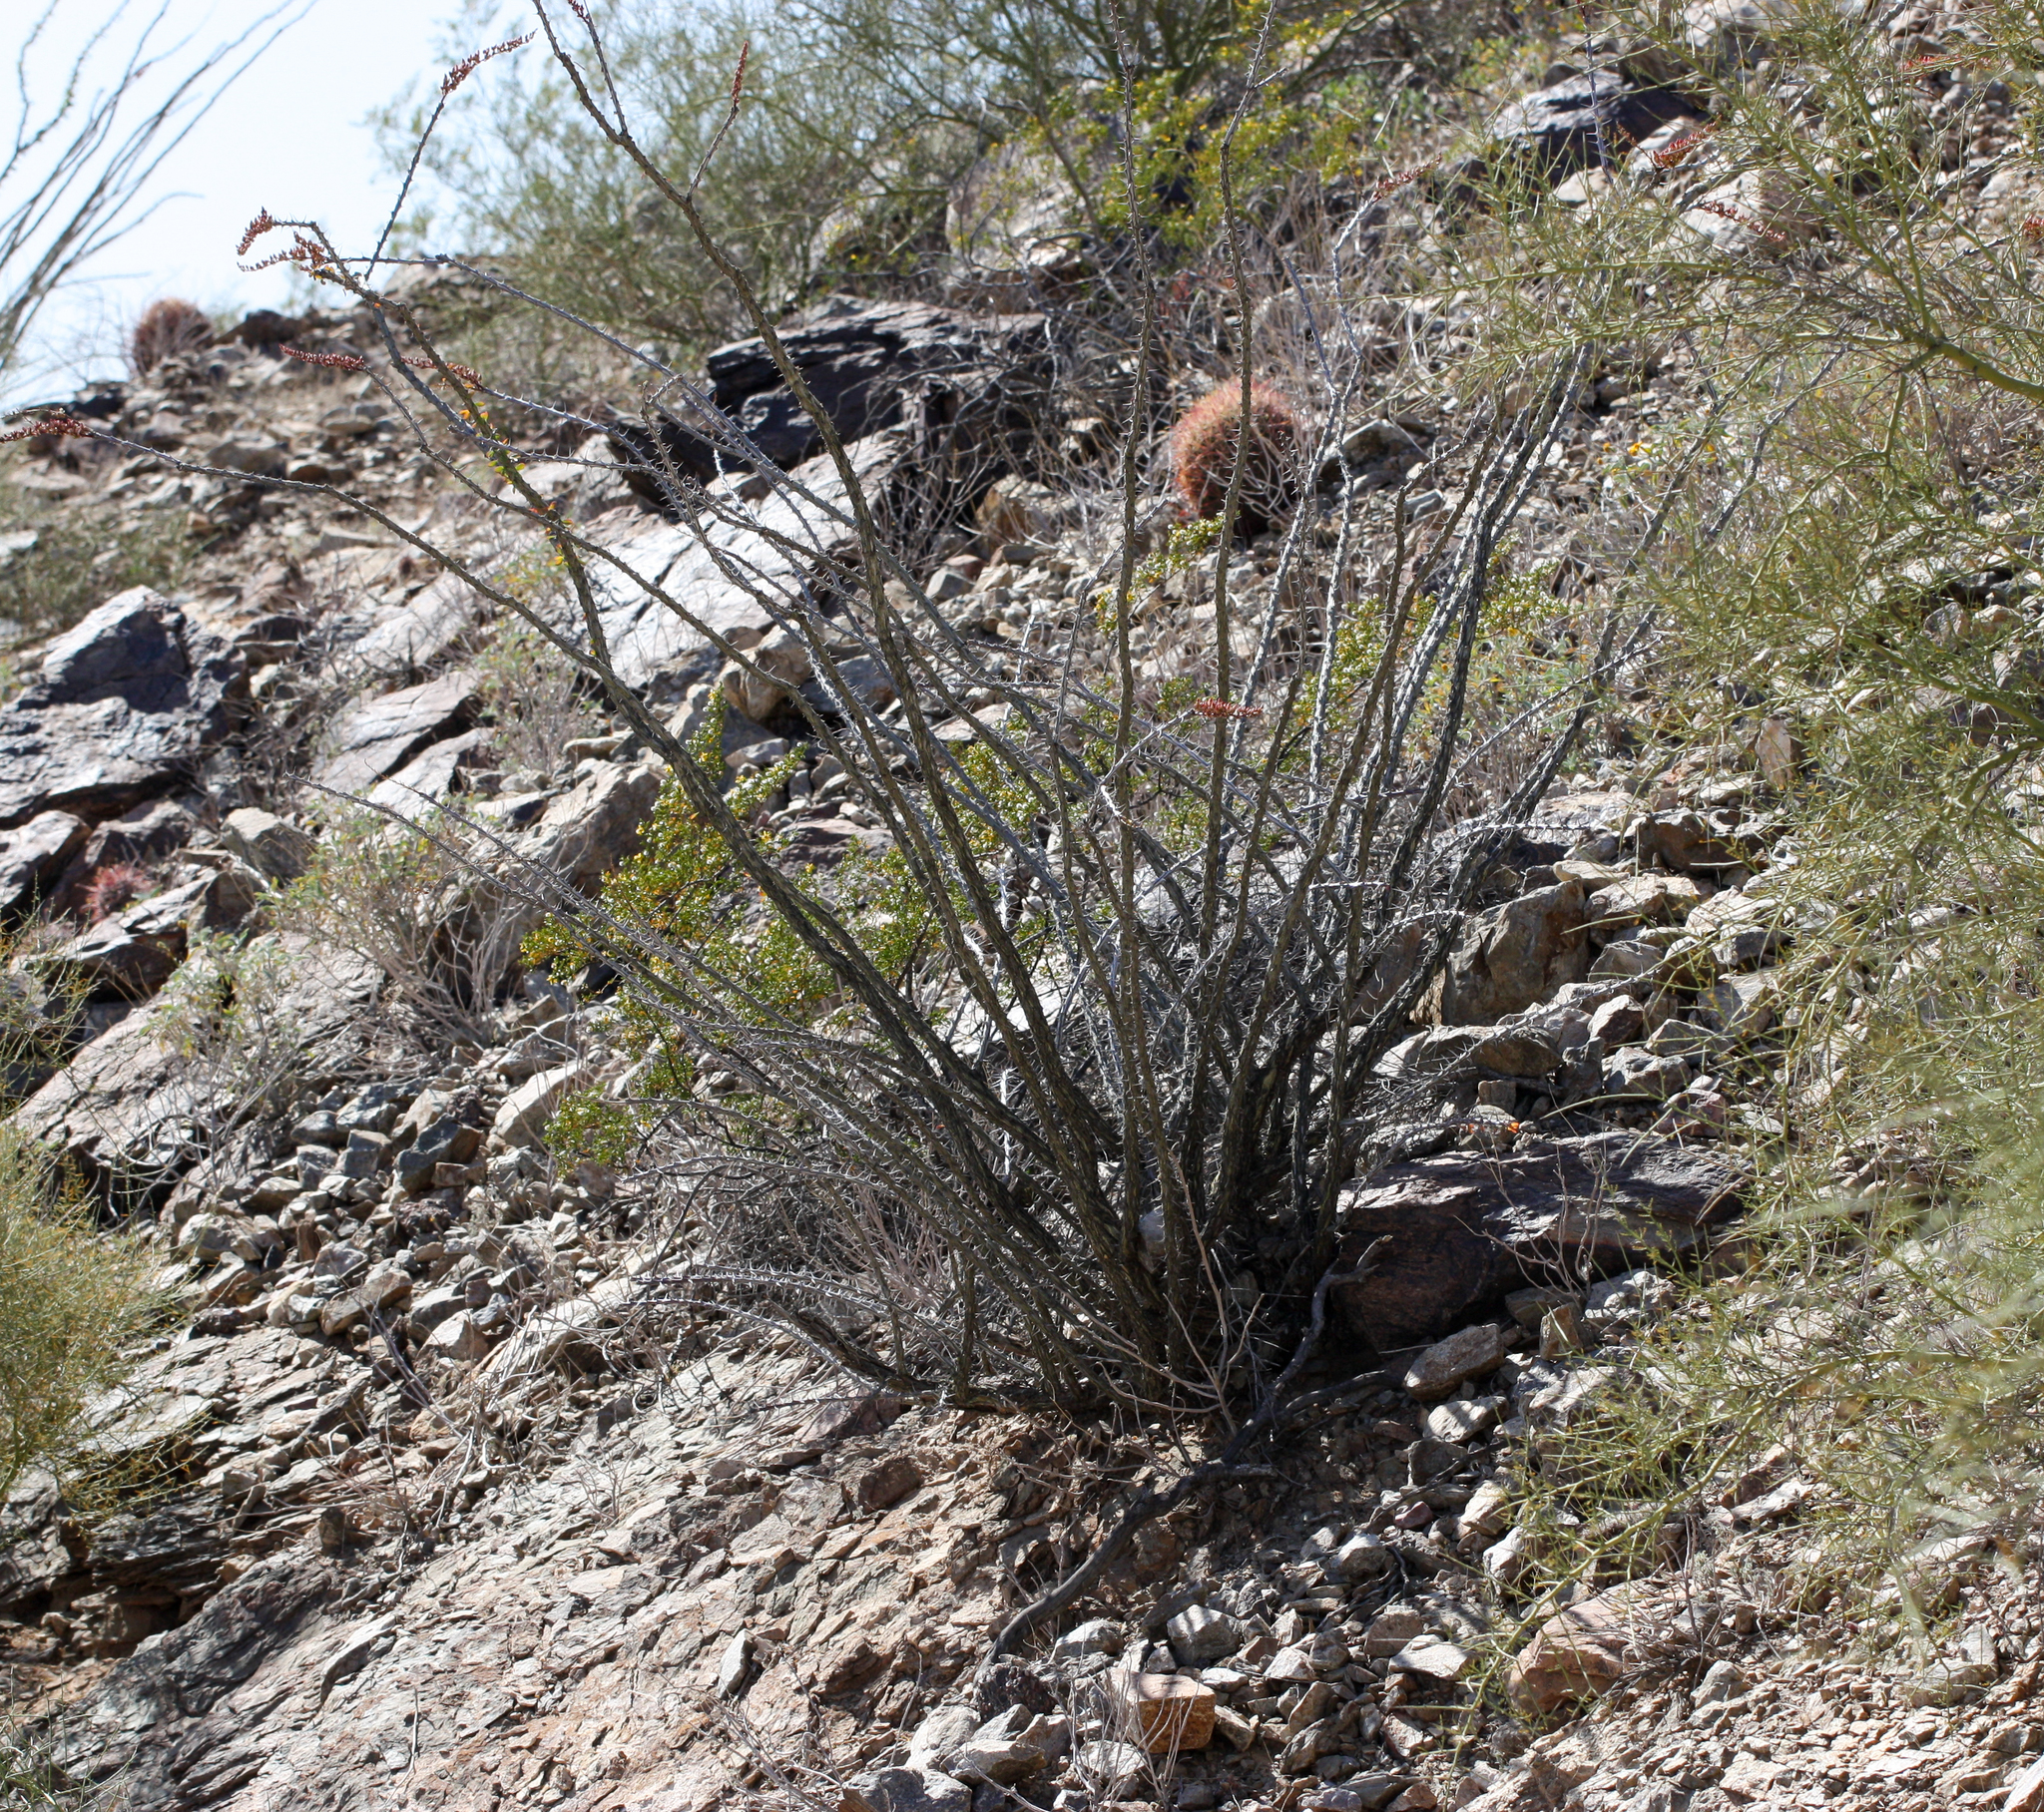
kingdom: Plantae
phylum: Tracheophyta
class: Magnoliopsida
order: Ericales
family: Fouquieriaceae
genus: Fouquieria
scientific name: Fouquieria splendens
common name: Vine-cactus
